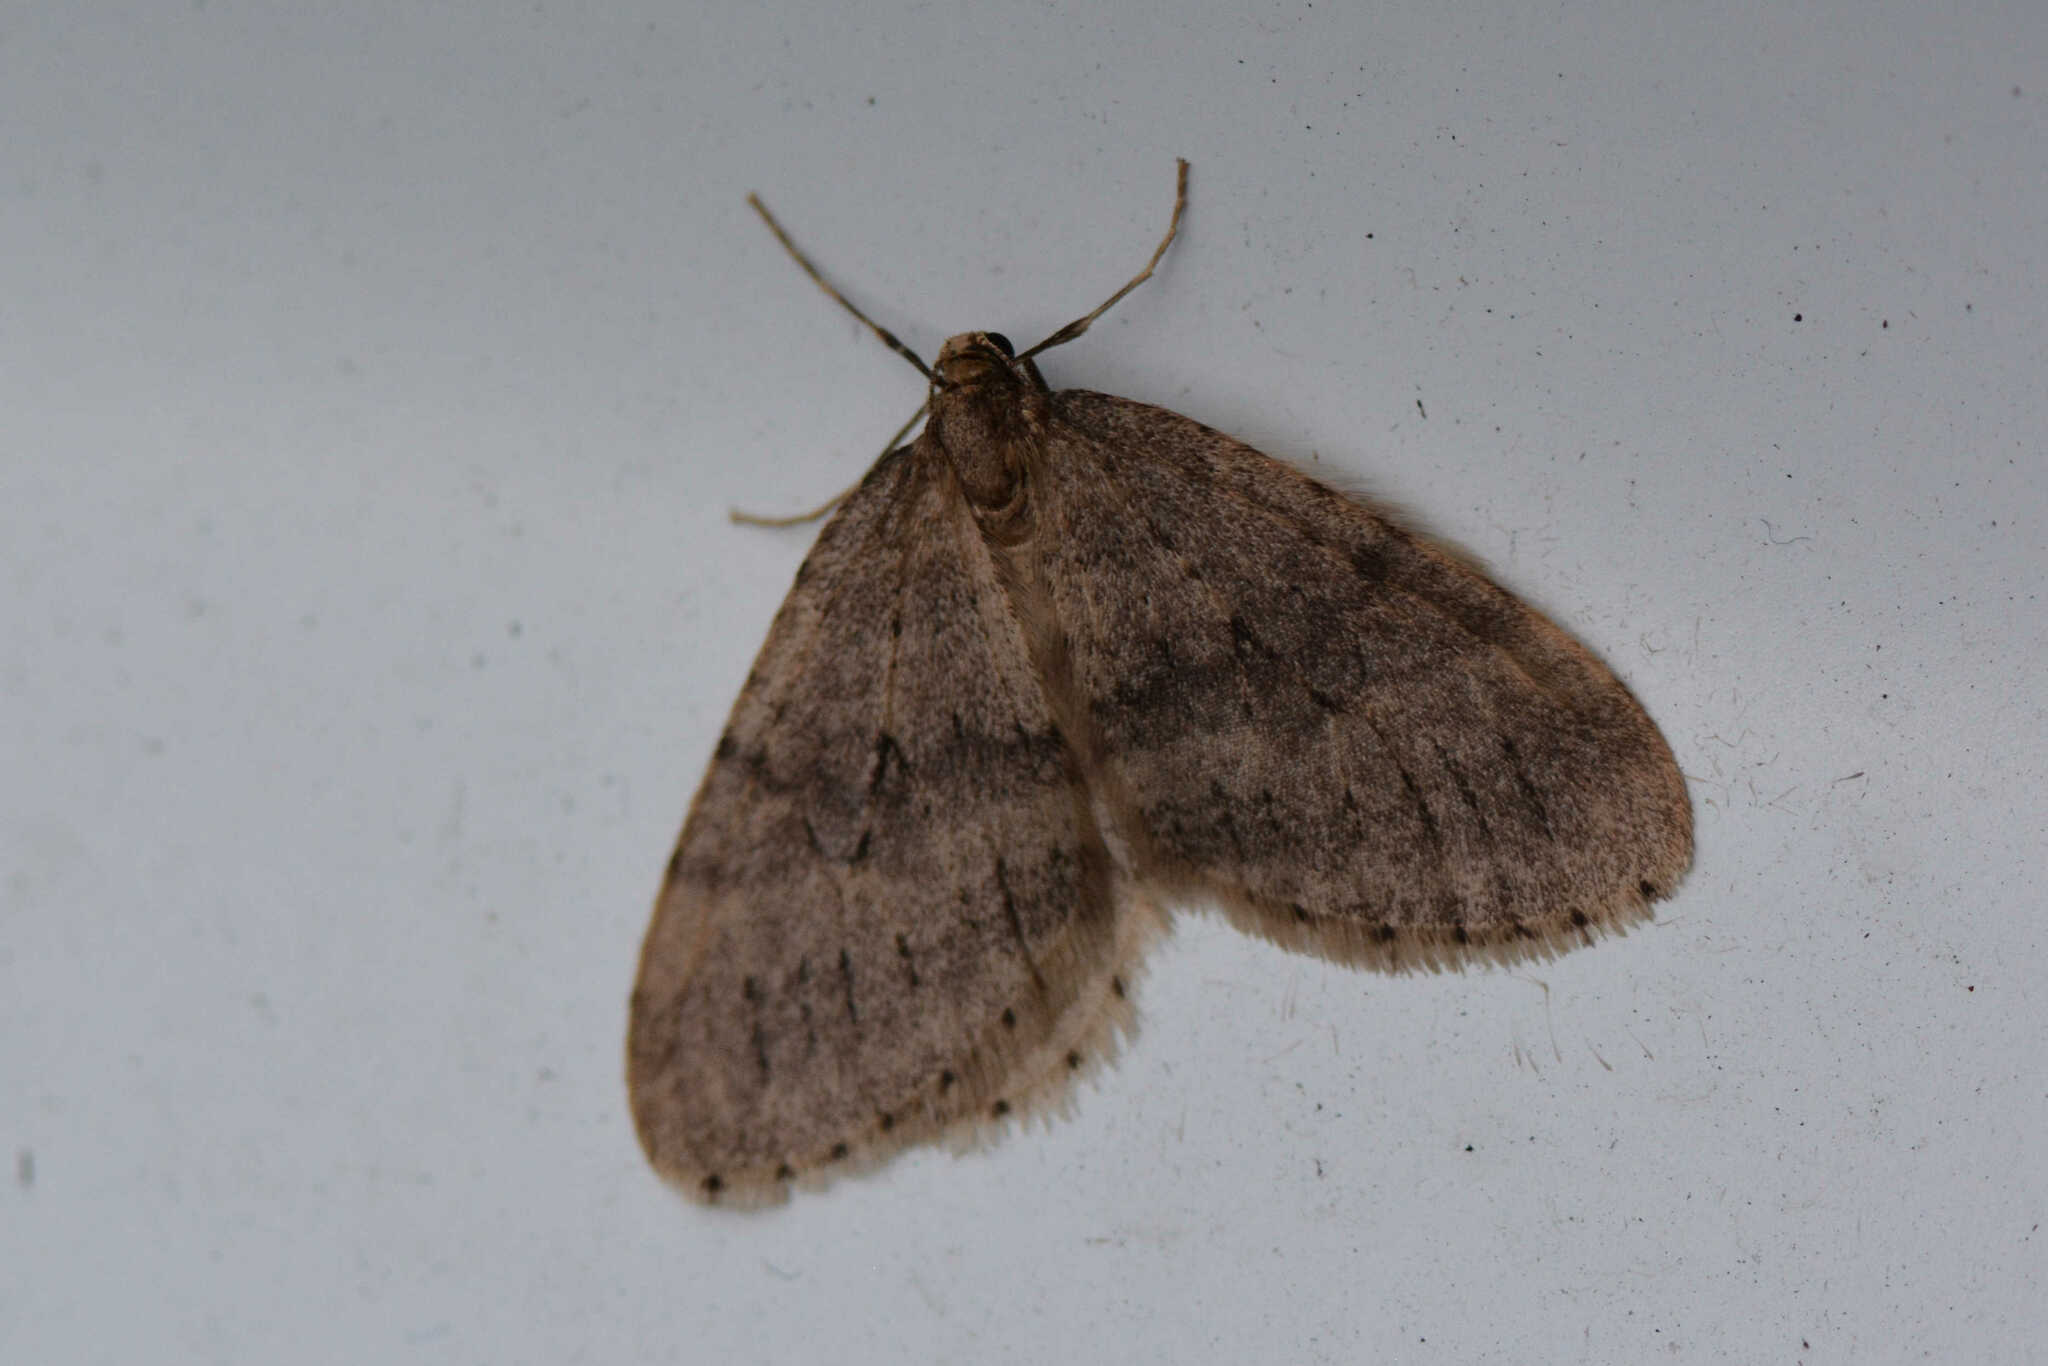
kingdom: Animalia
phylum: Arthropoda
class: Insecta
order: Lepidoptera
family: Geometridae
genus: Operophtera
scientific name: Operophtera brumata
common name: Winter moth
